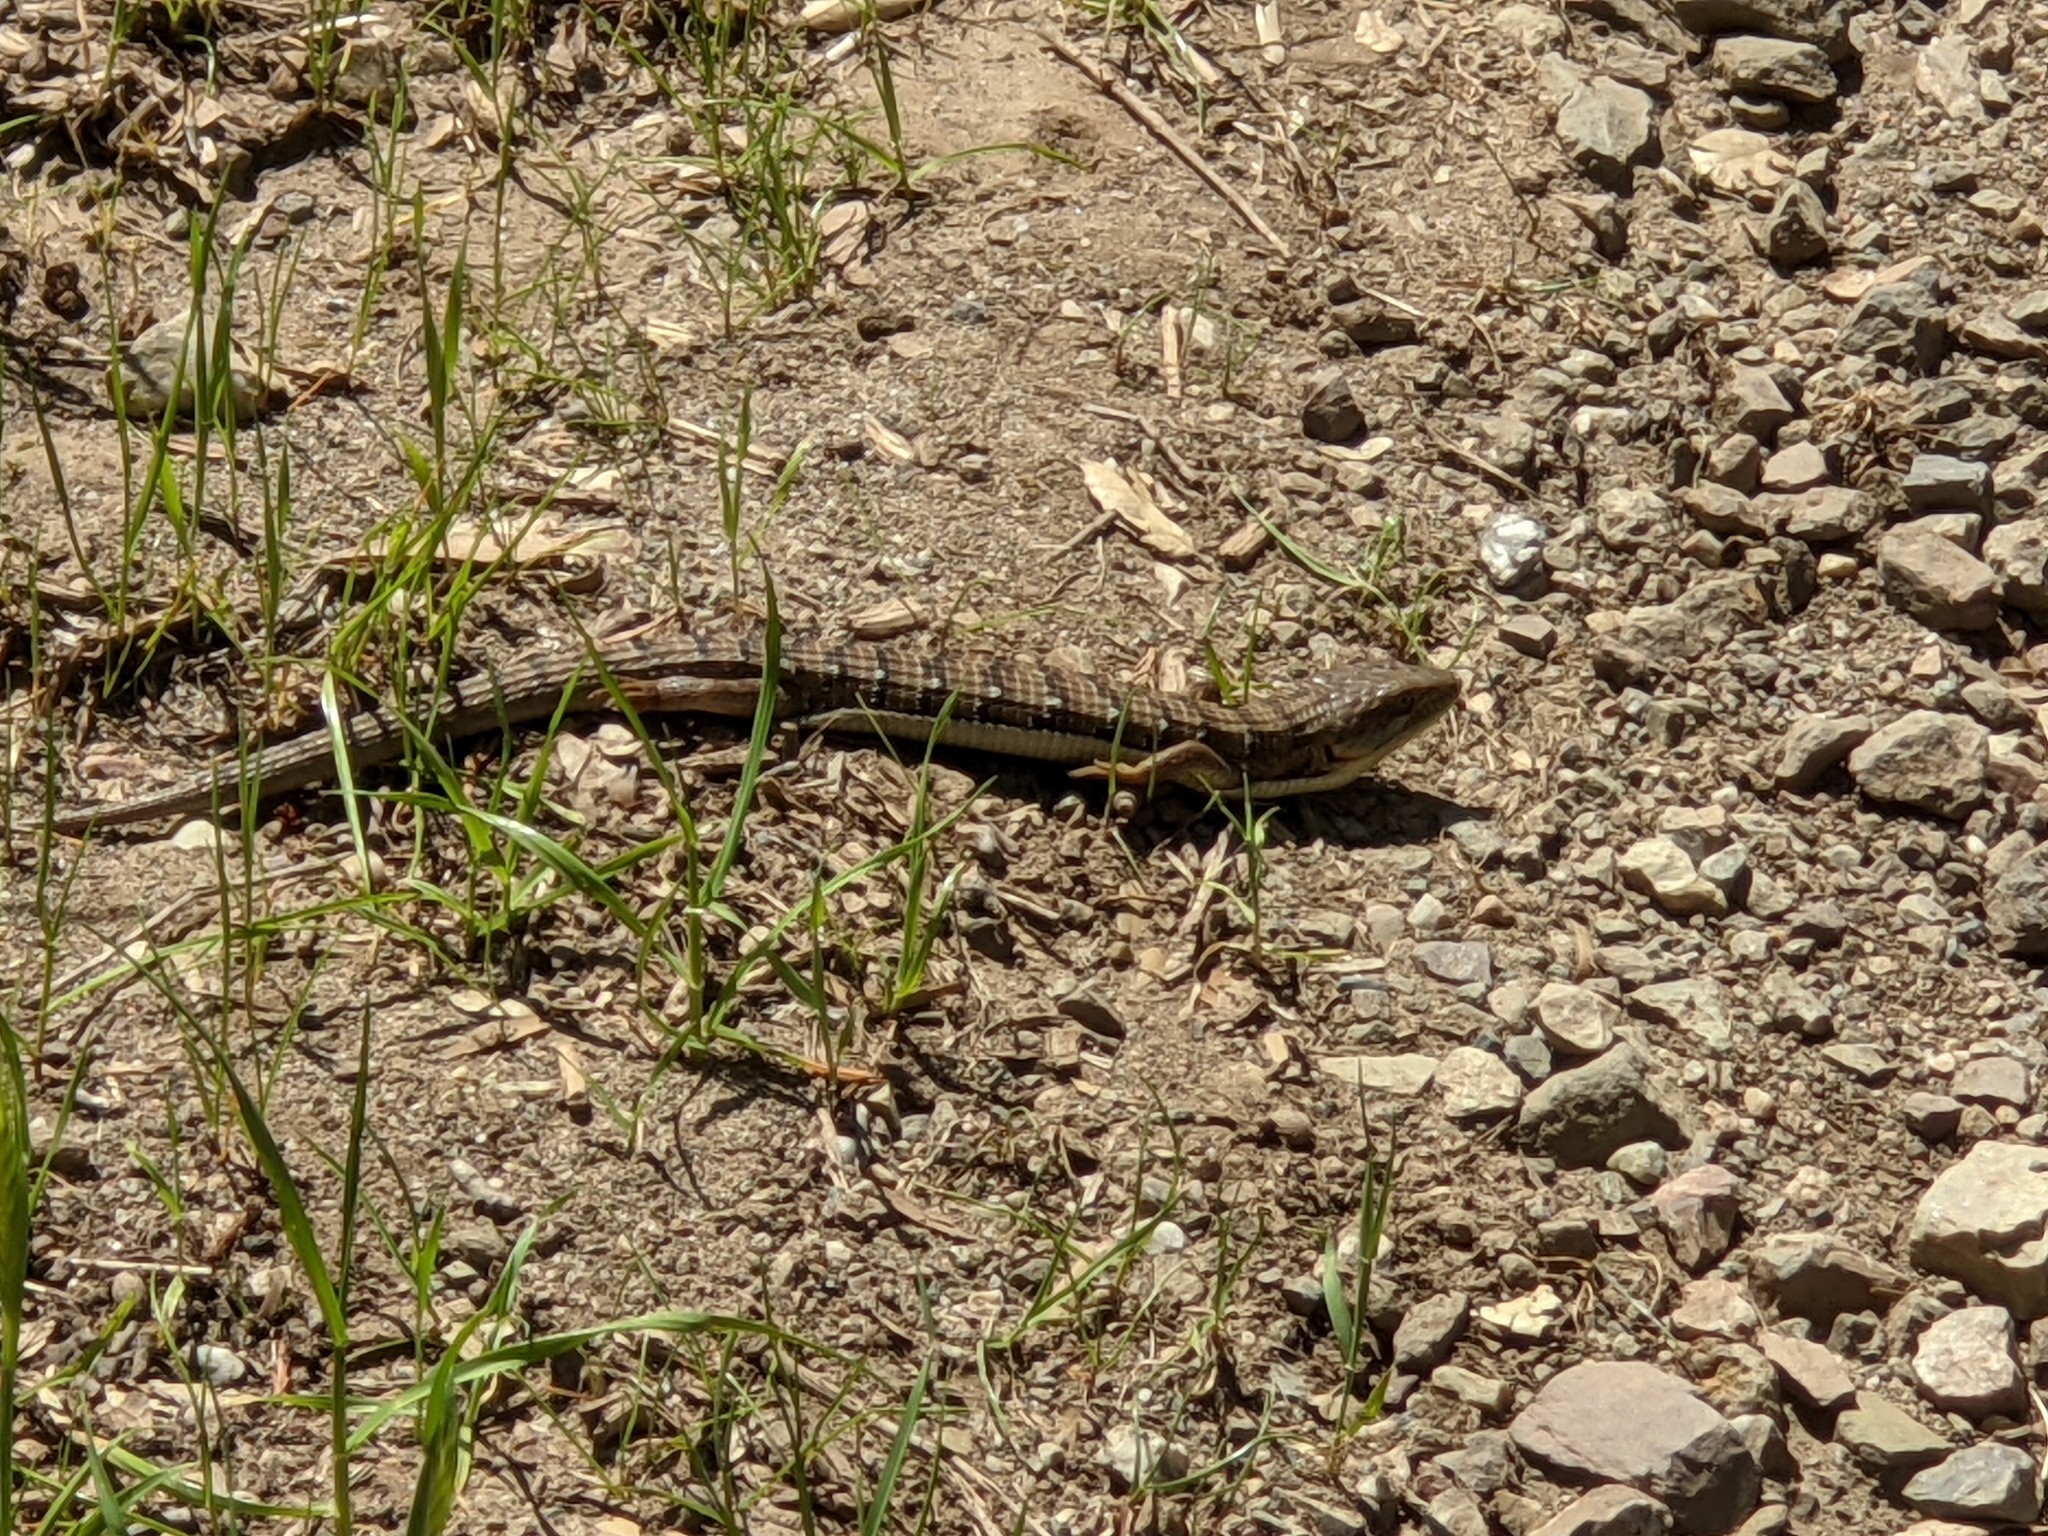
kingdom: Animalia
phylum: Chordata
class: Squamata
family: Anguidae
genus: Elgaria
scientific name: Elgaria multicarinata
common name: Southern alligator lizard
